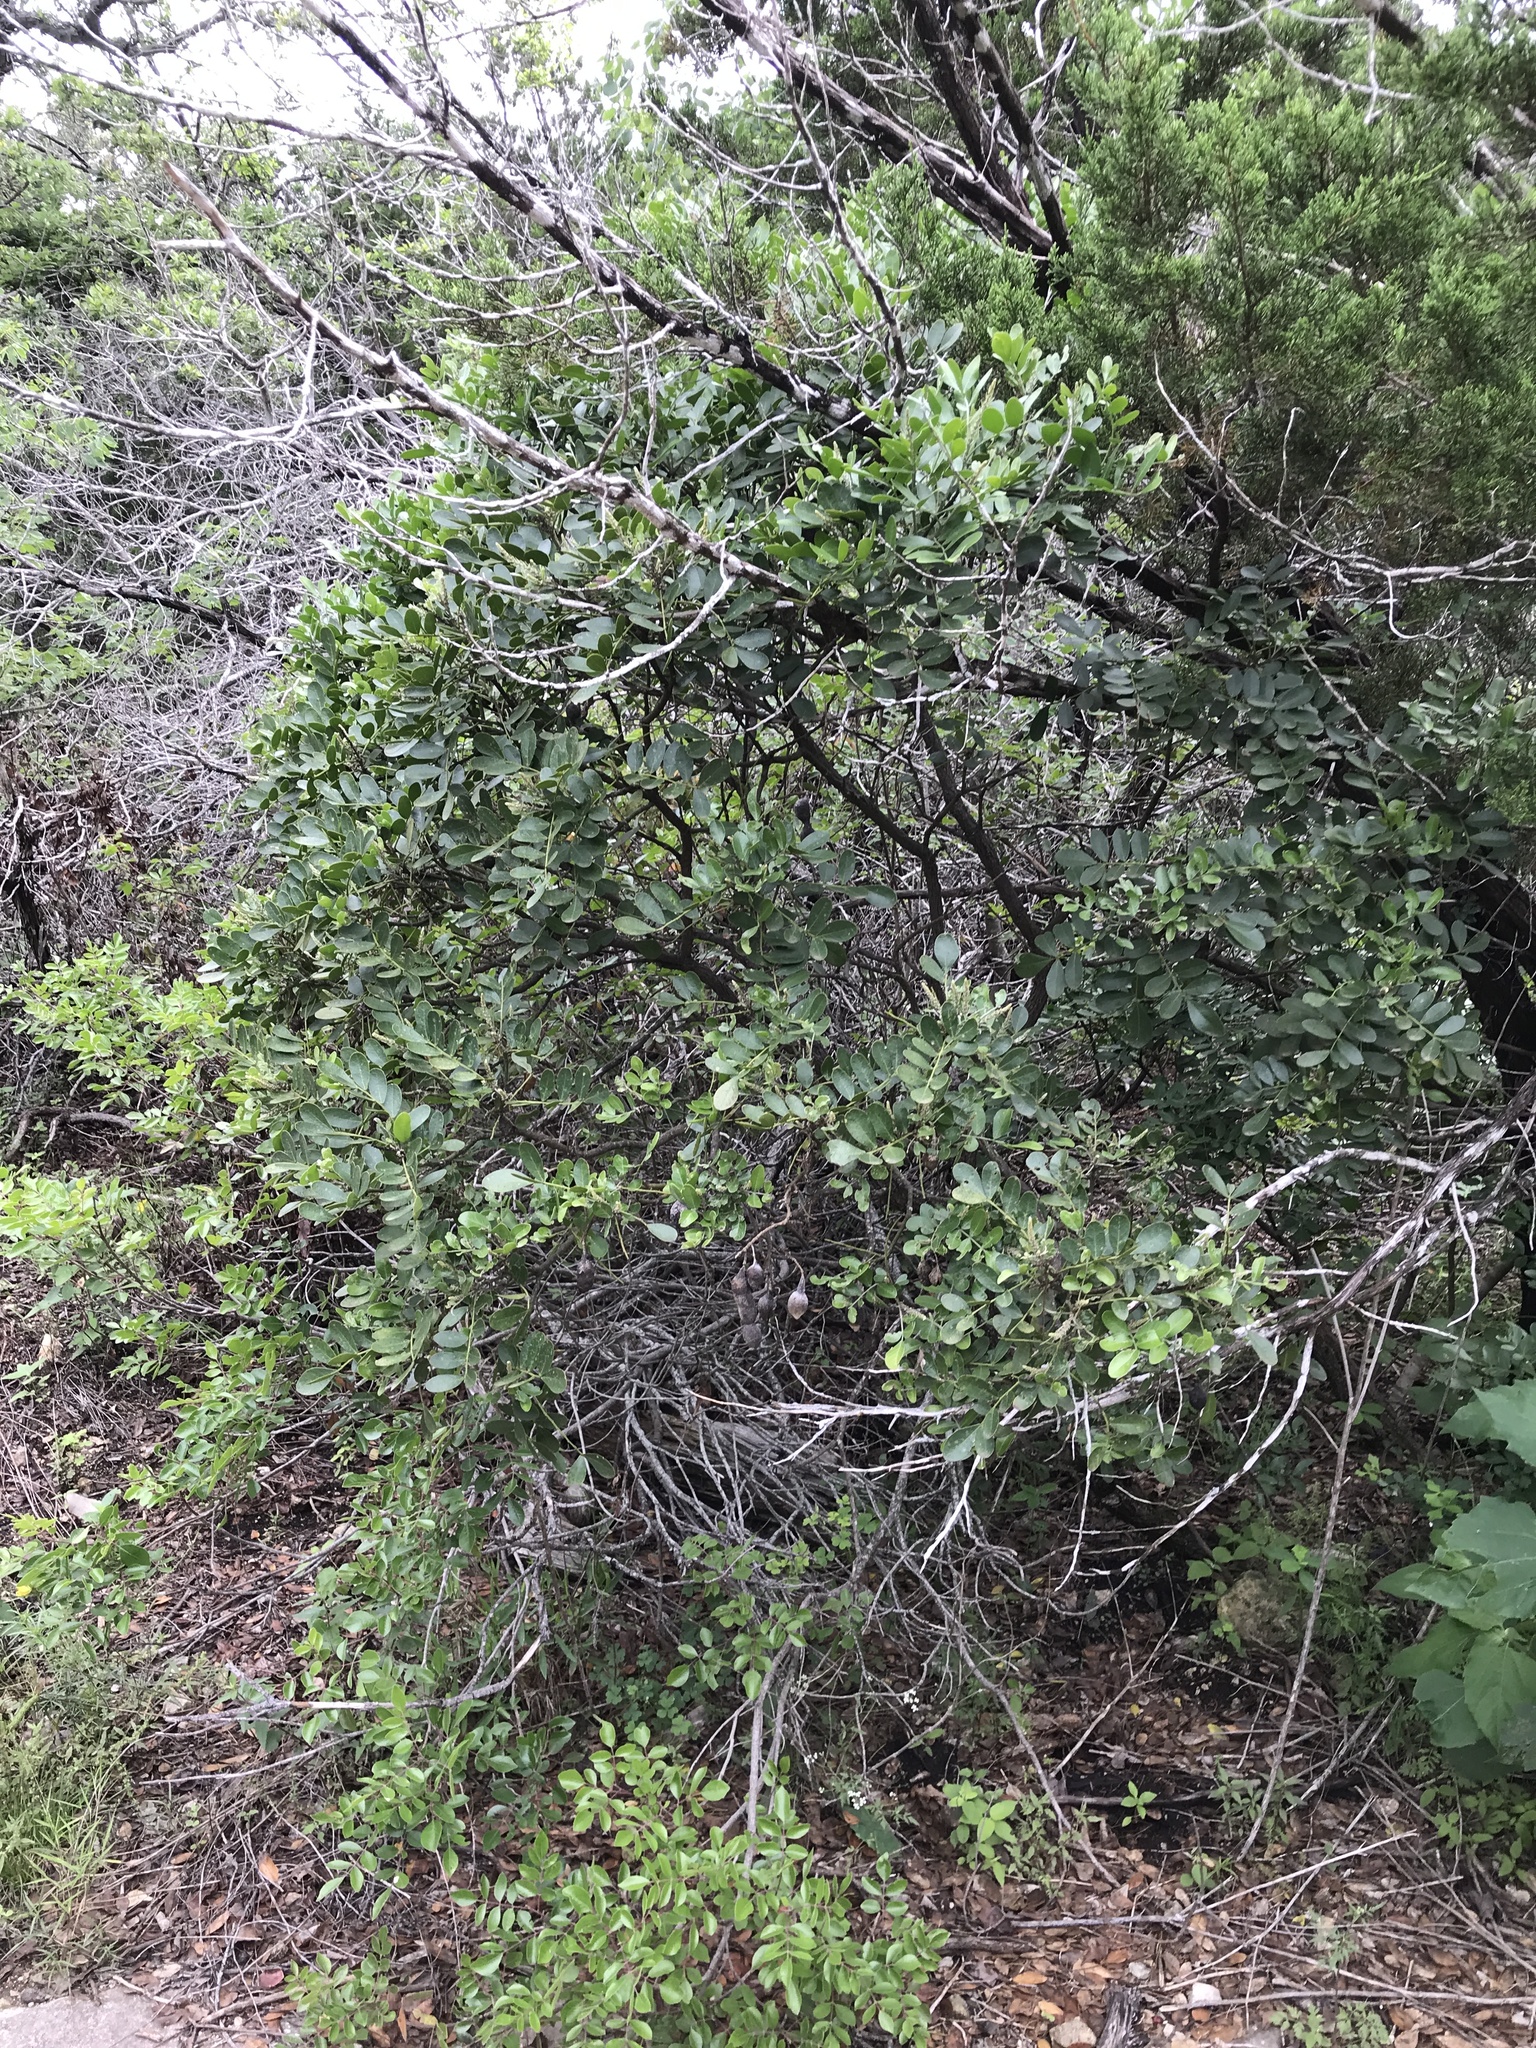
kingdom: Plantae
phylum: Tracheophyta
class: Magnoliopsida
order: Fabales
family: Fabaceae
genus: Dermatophyllum
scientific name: Dermatophyllum secundiflorum
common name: Texas-mountain-laurel
